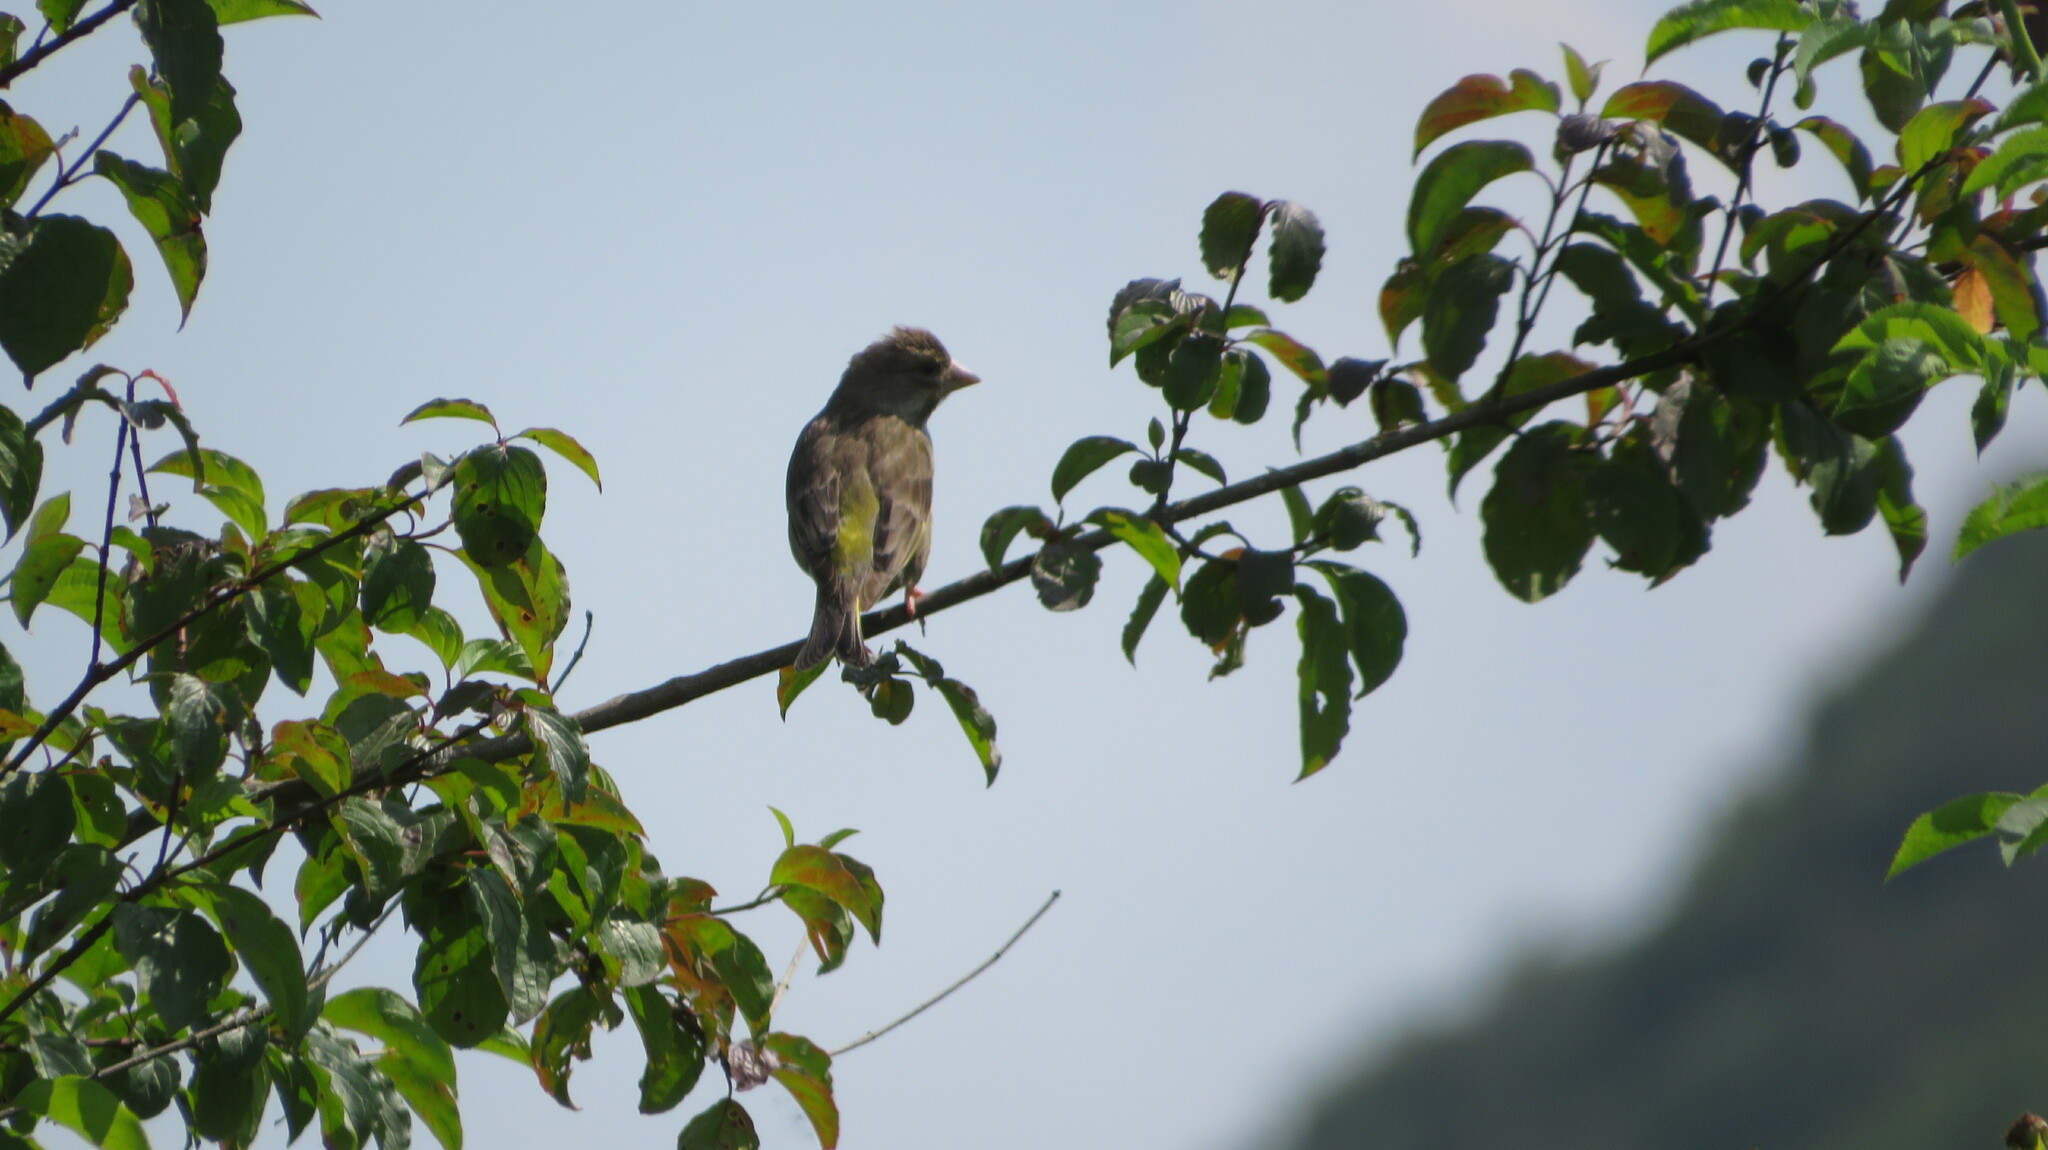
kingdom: Plantae
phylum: Tracheophyta
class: Liliopsida
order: Poales
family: Poaceae
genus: Chloris
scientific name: Chloris chloris
